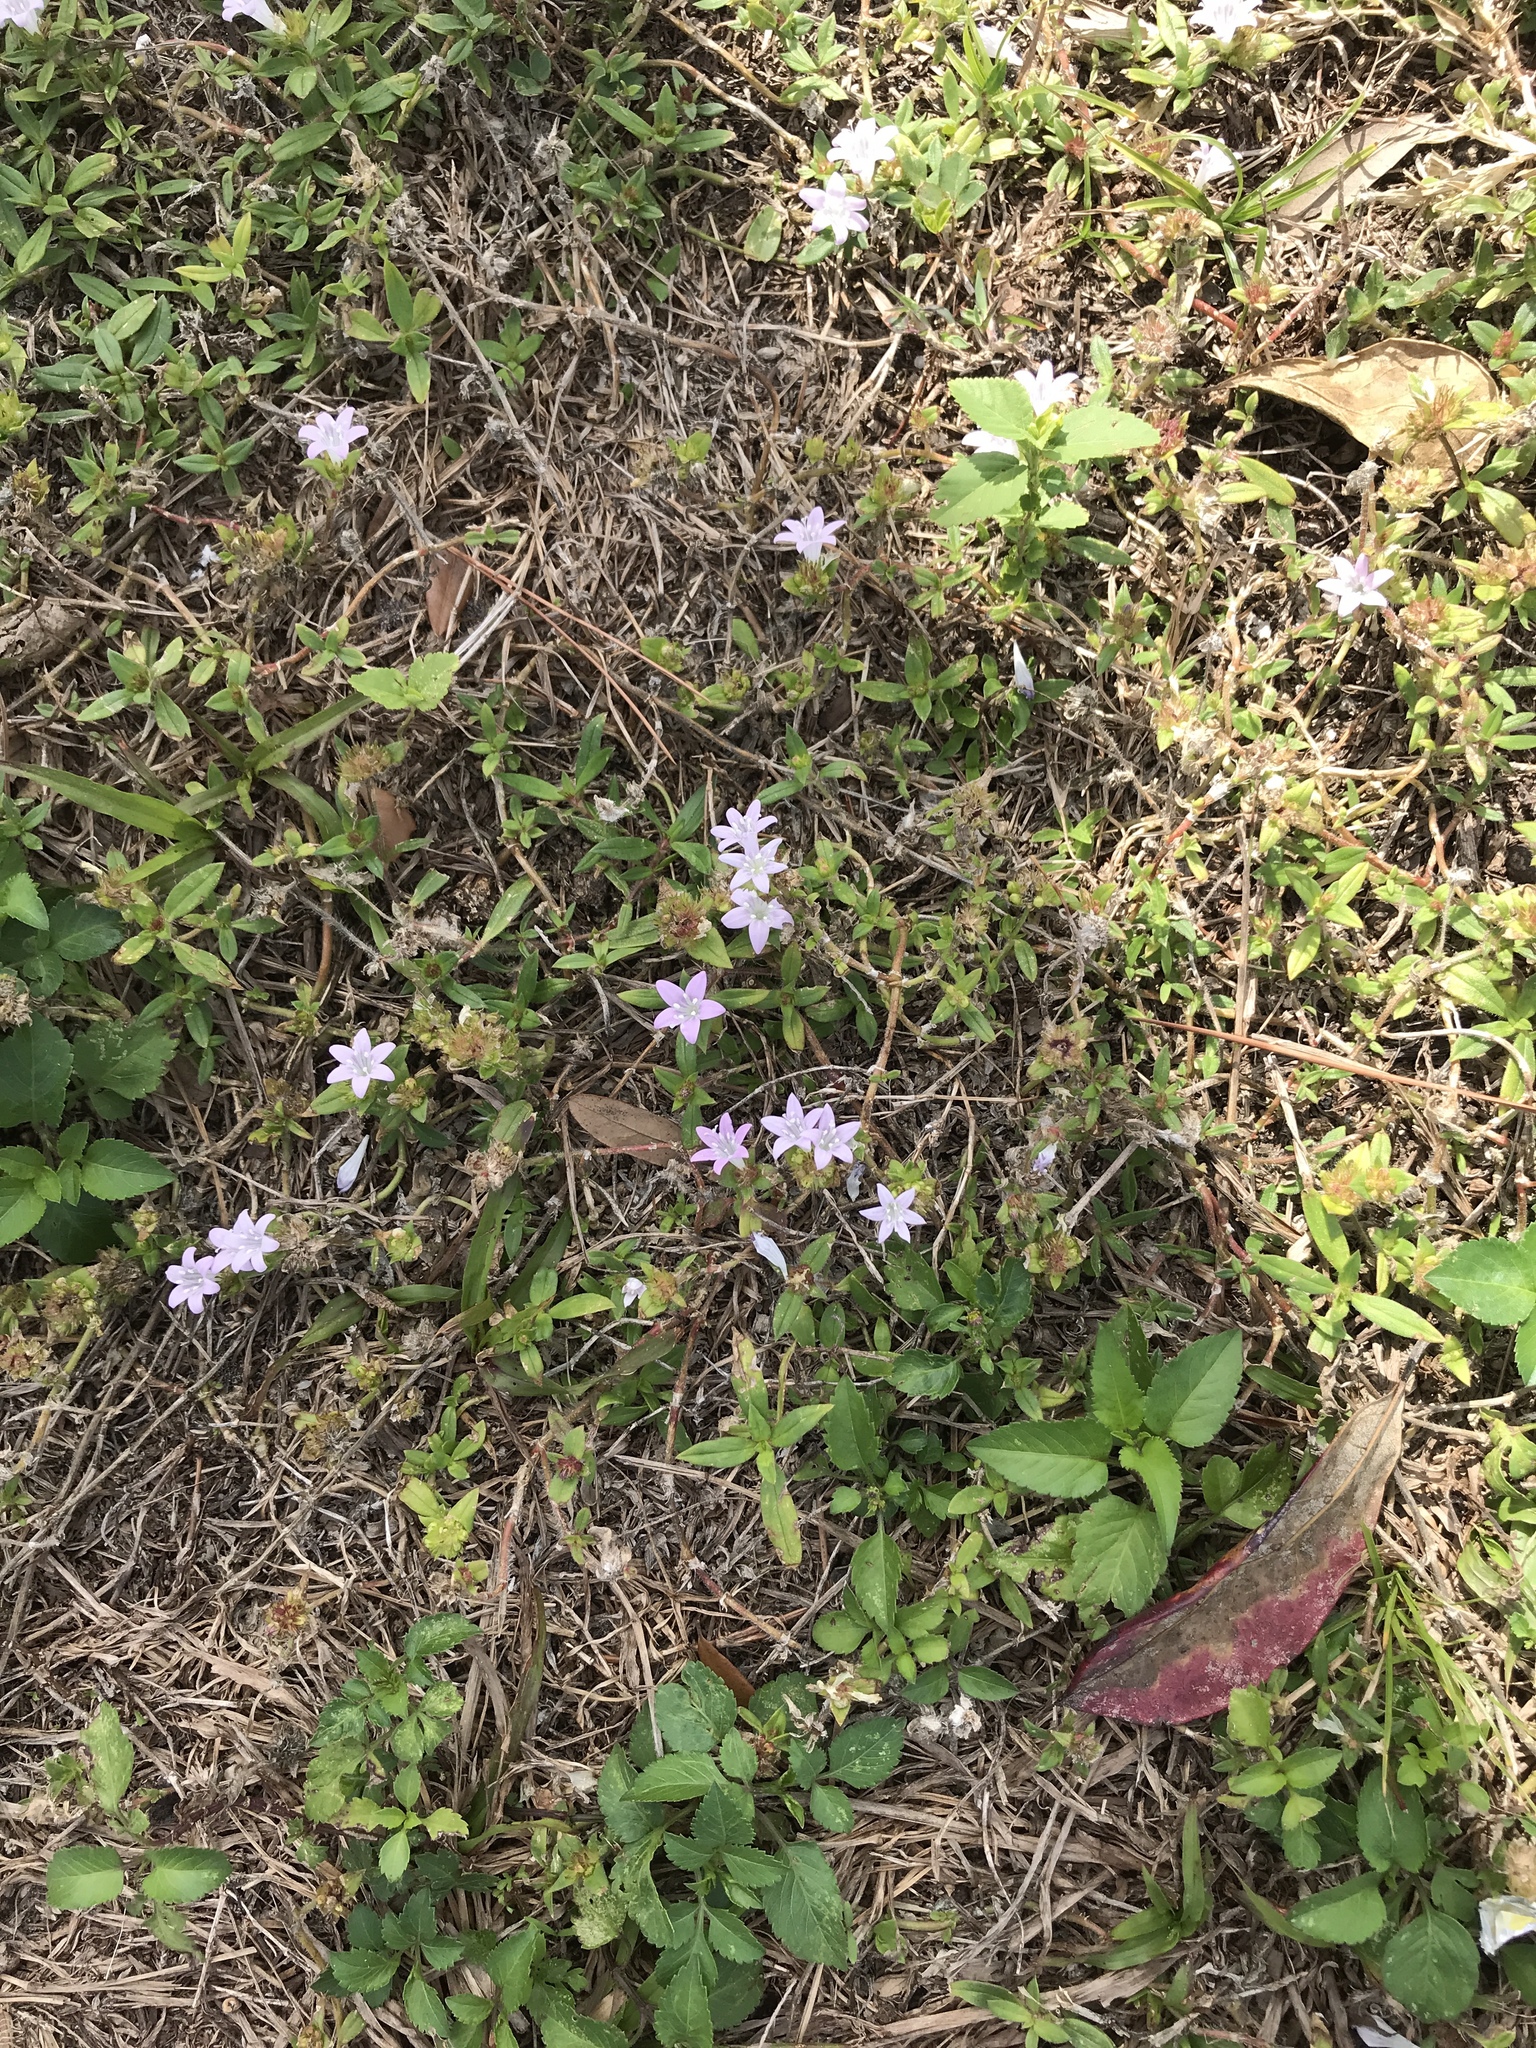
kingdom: Plantae
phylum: Tracheophyta
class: Magnoliopsida
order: Gentianales
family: Rubiaceae
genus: Richardia
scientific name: Richardia grandiflora
